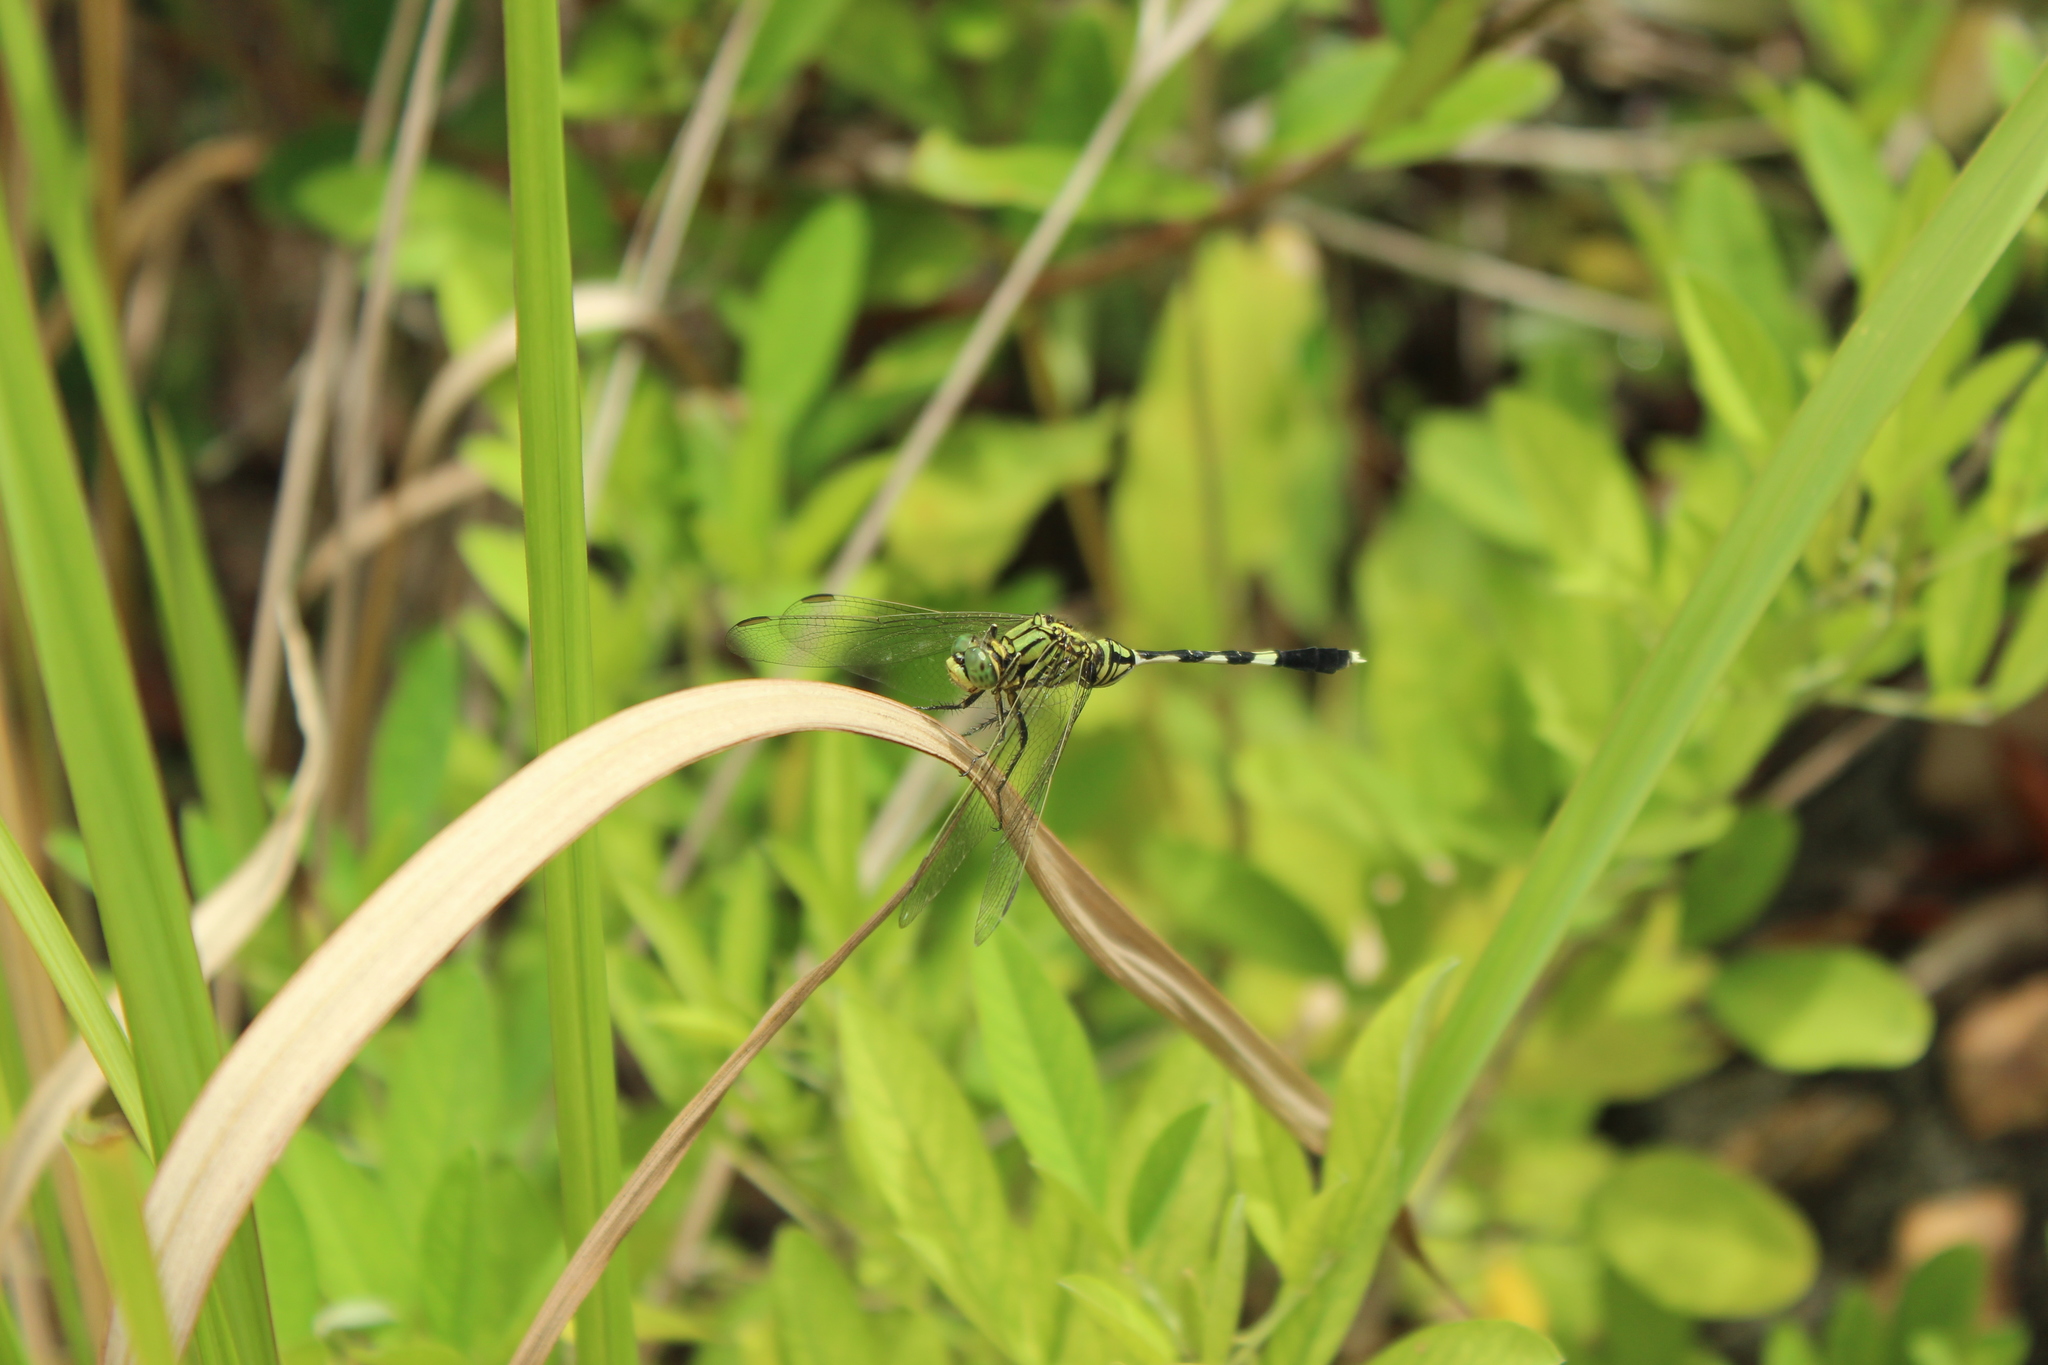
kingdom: Animalia
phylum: Arthropoda
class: Insecta
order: Odonata
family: Libellulidae
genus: Orthetrum
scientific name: Orthetrum sabina
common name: Slender skimmer
